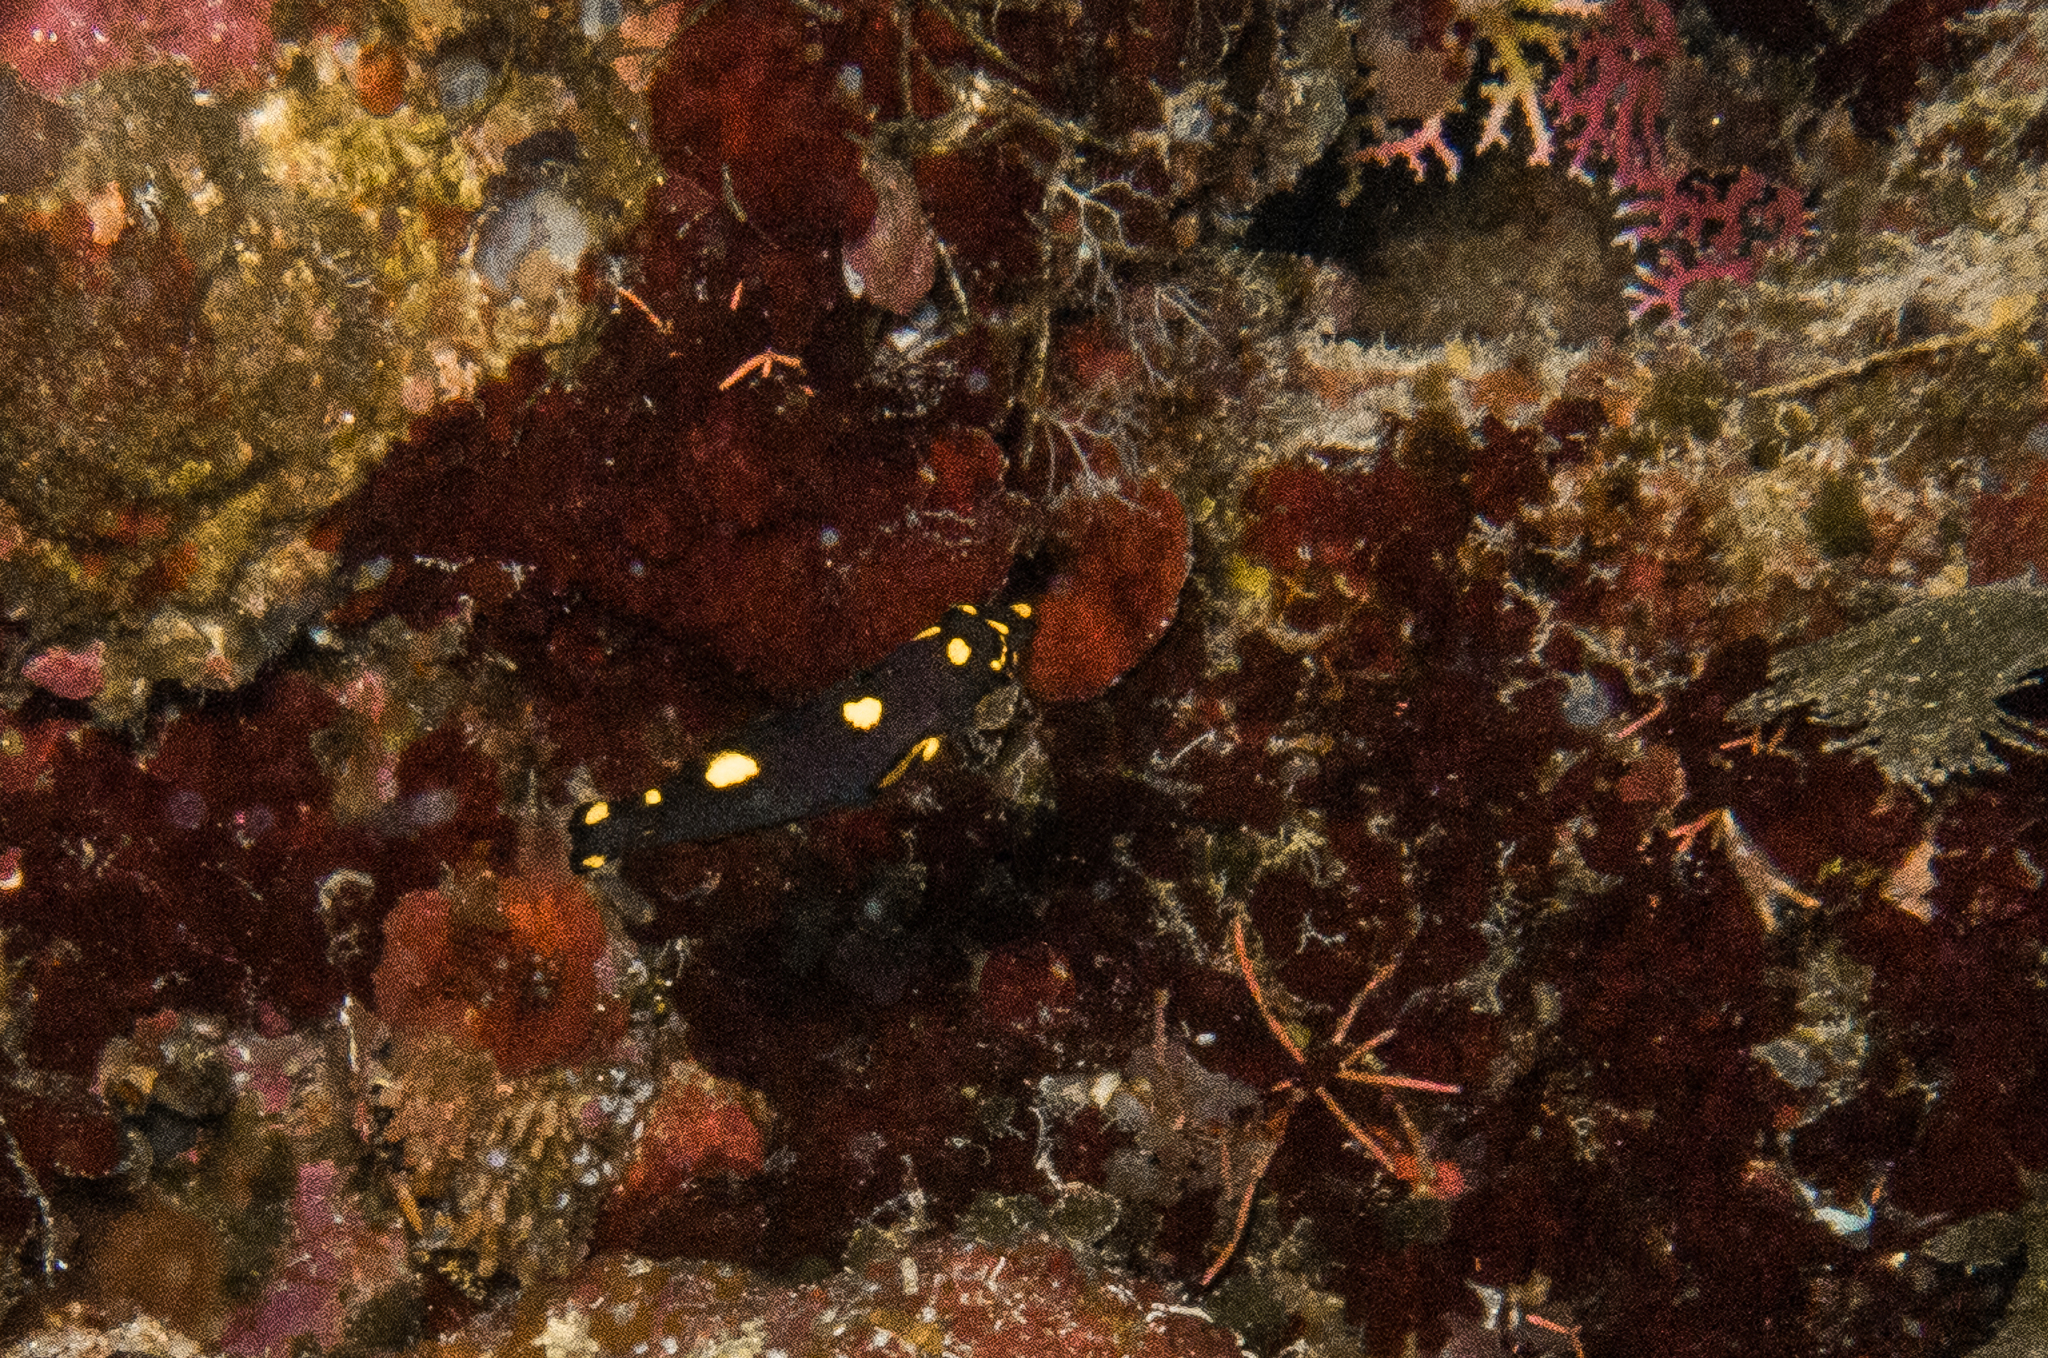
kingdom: Animalia
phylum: Chordata
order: Perciformes
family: Labridae
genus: Bodianus
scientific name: Bodianus mesothorax
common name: Coral hogfish
